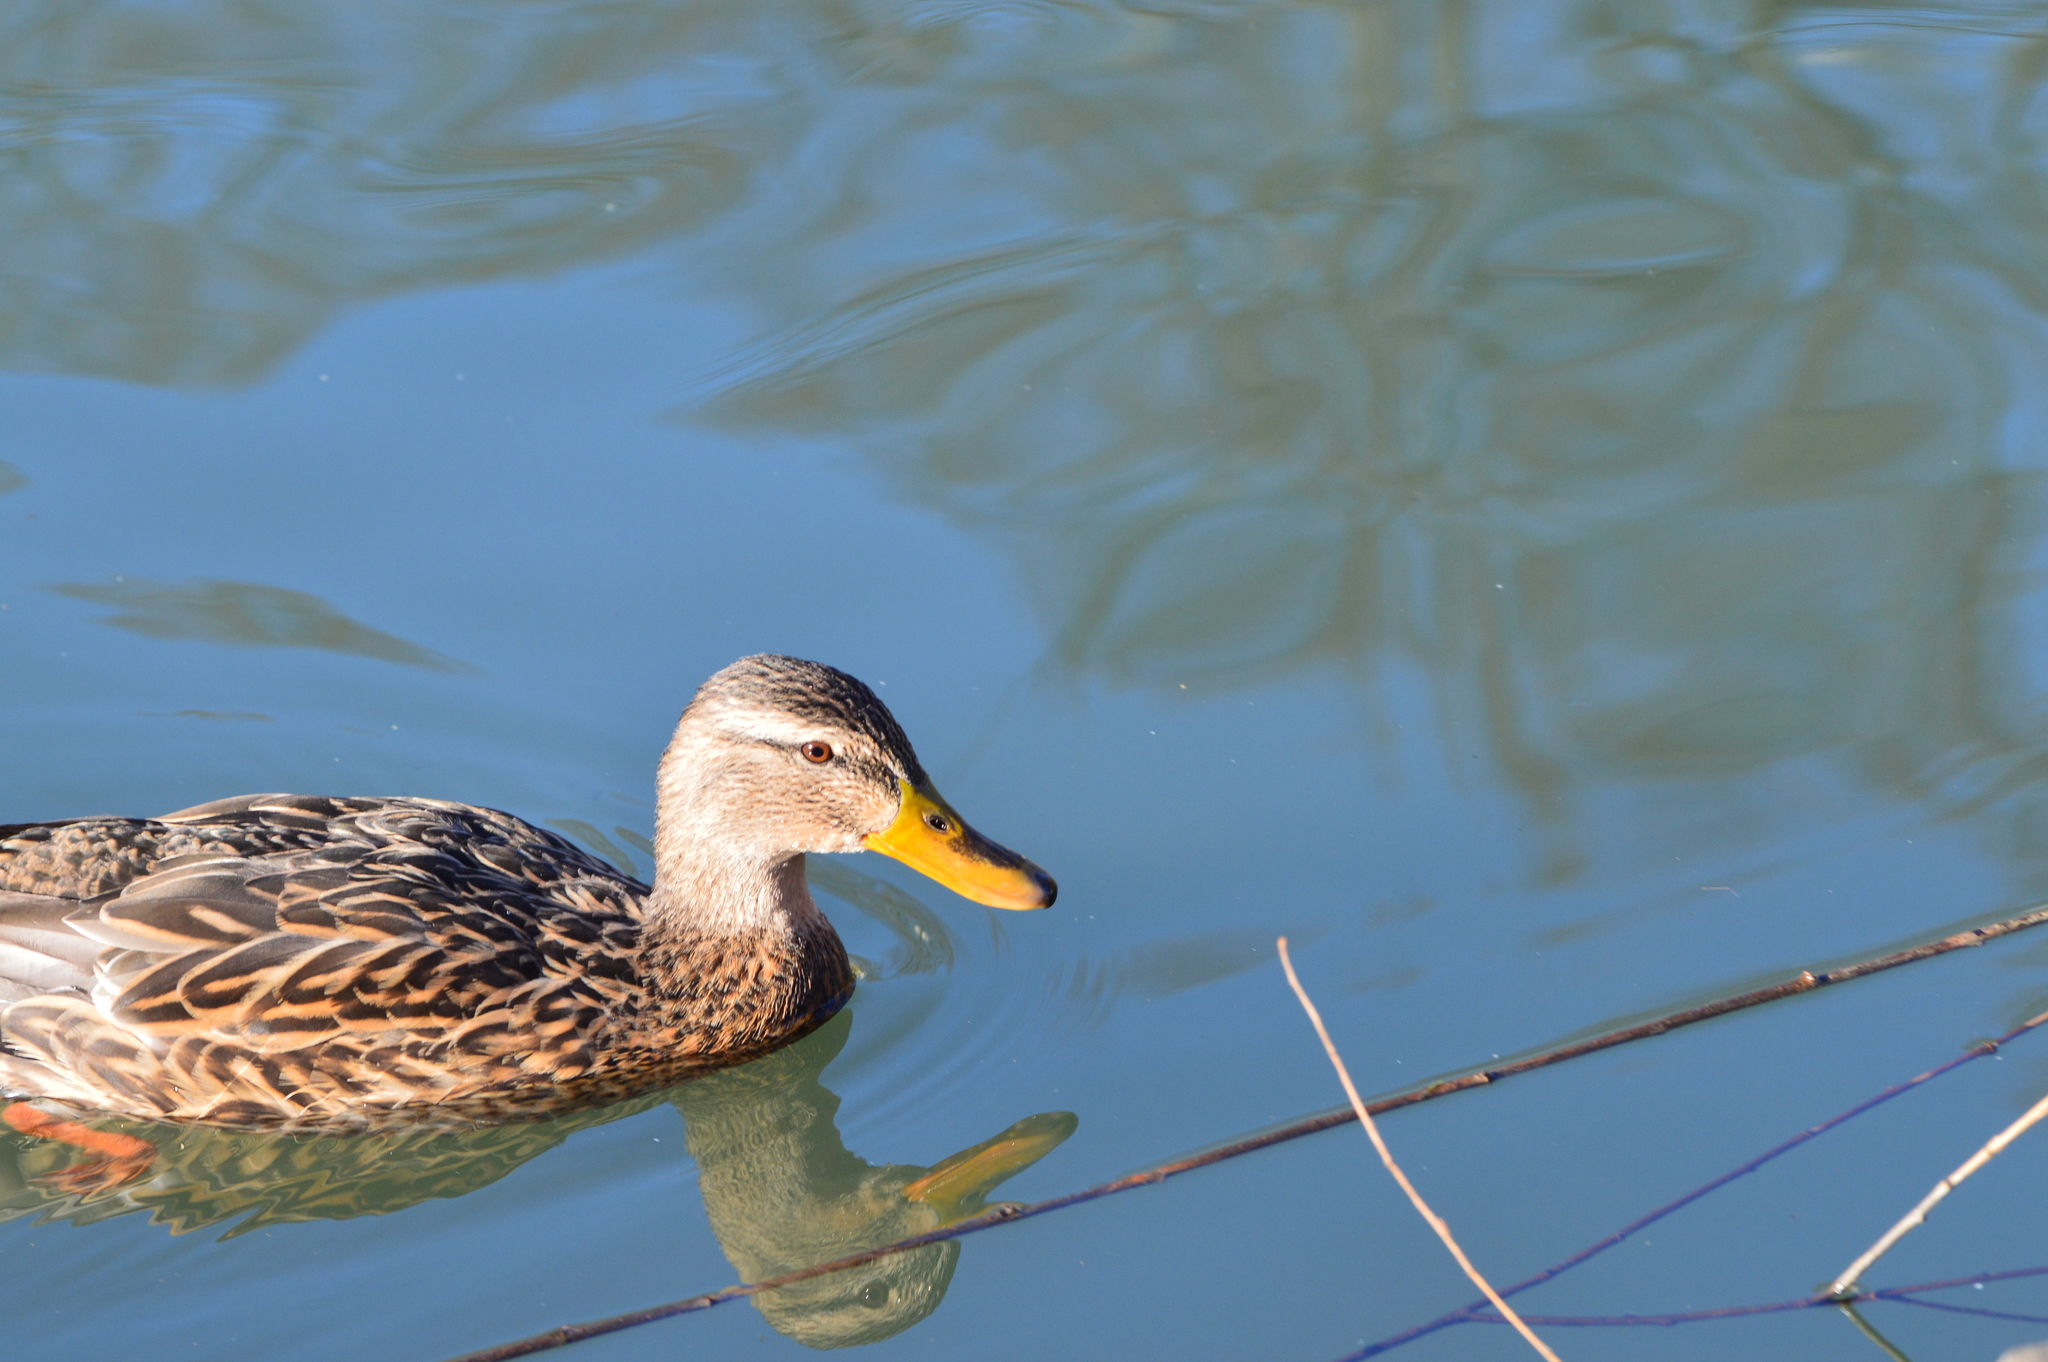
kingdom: Animalia
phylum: Chordata
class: Aves
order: Anseriformes
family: Anatidae
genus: Anas
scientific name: Anas platyrhynchos
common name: Mallard
